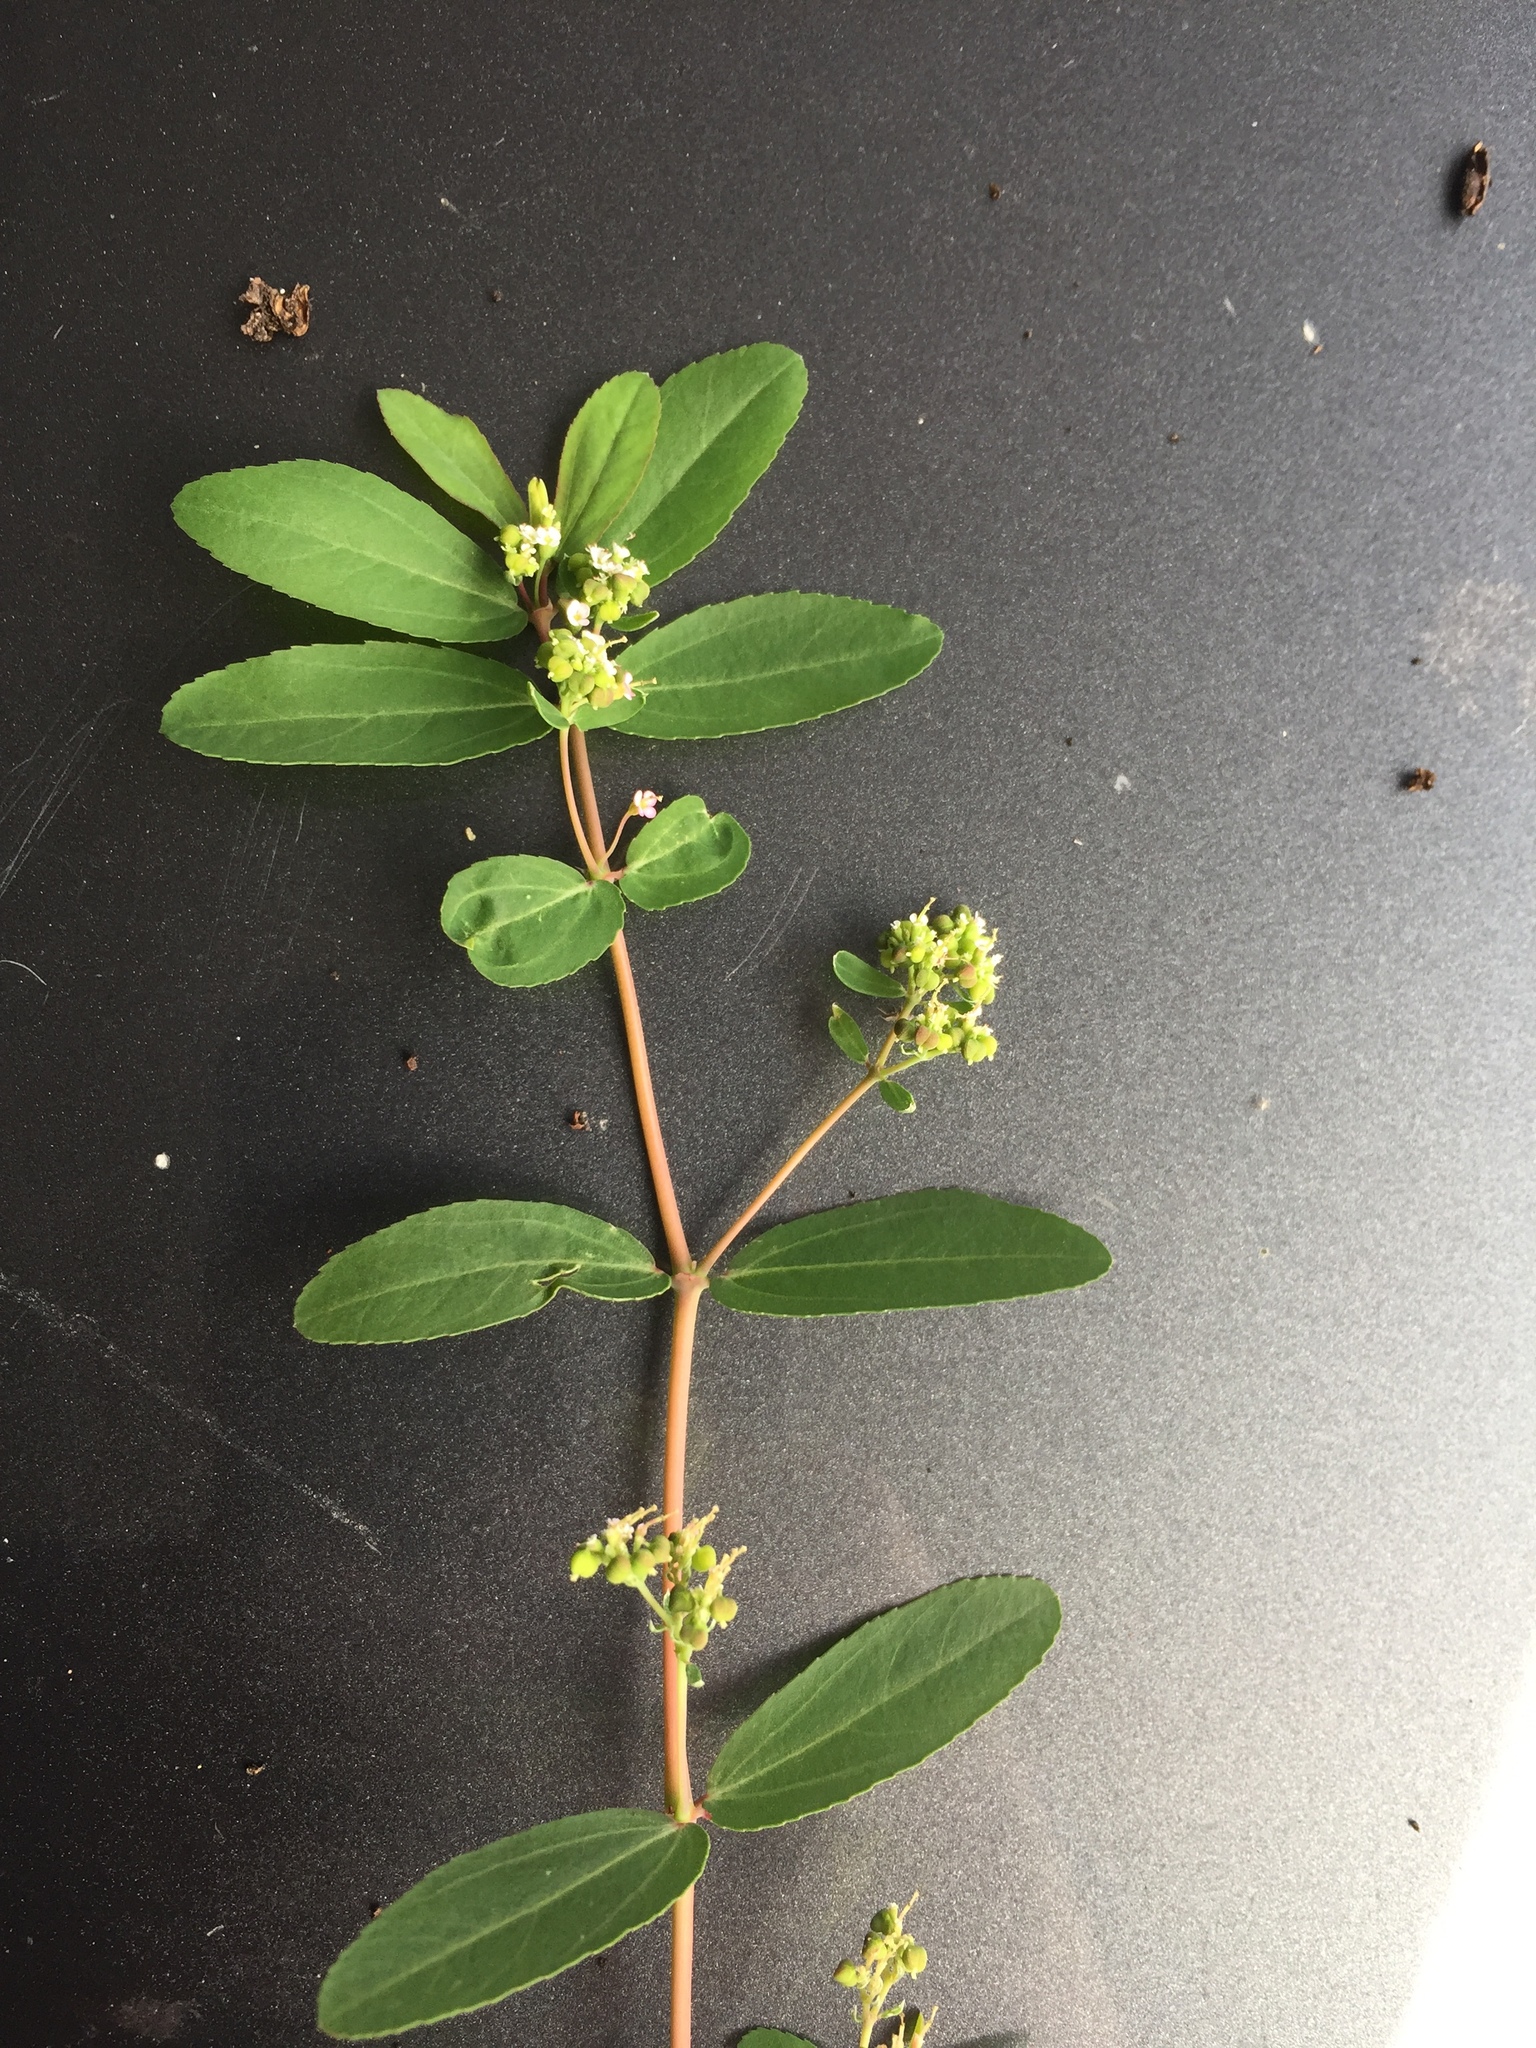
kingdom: Plantae
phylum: Tracheophyta
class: Magnoliopsida
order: Malpighiales
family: Euphorbiaceae
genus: Euphorbia
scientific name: Euphorbia hypericifolia
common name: Graceful sandmat
